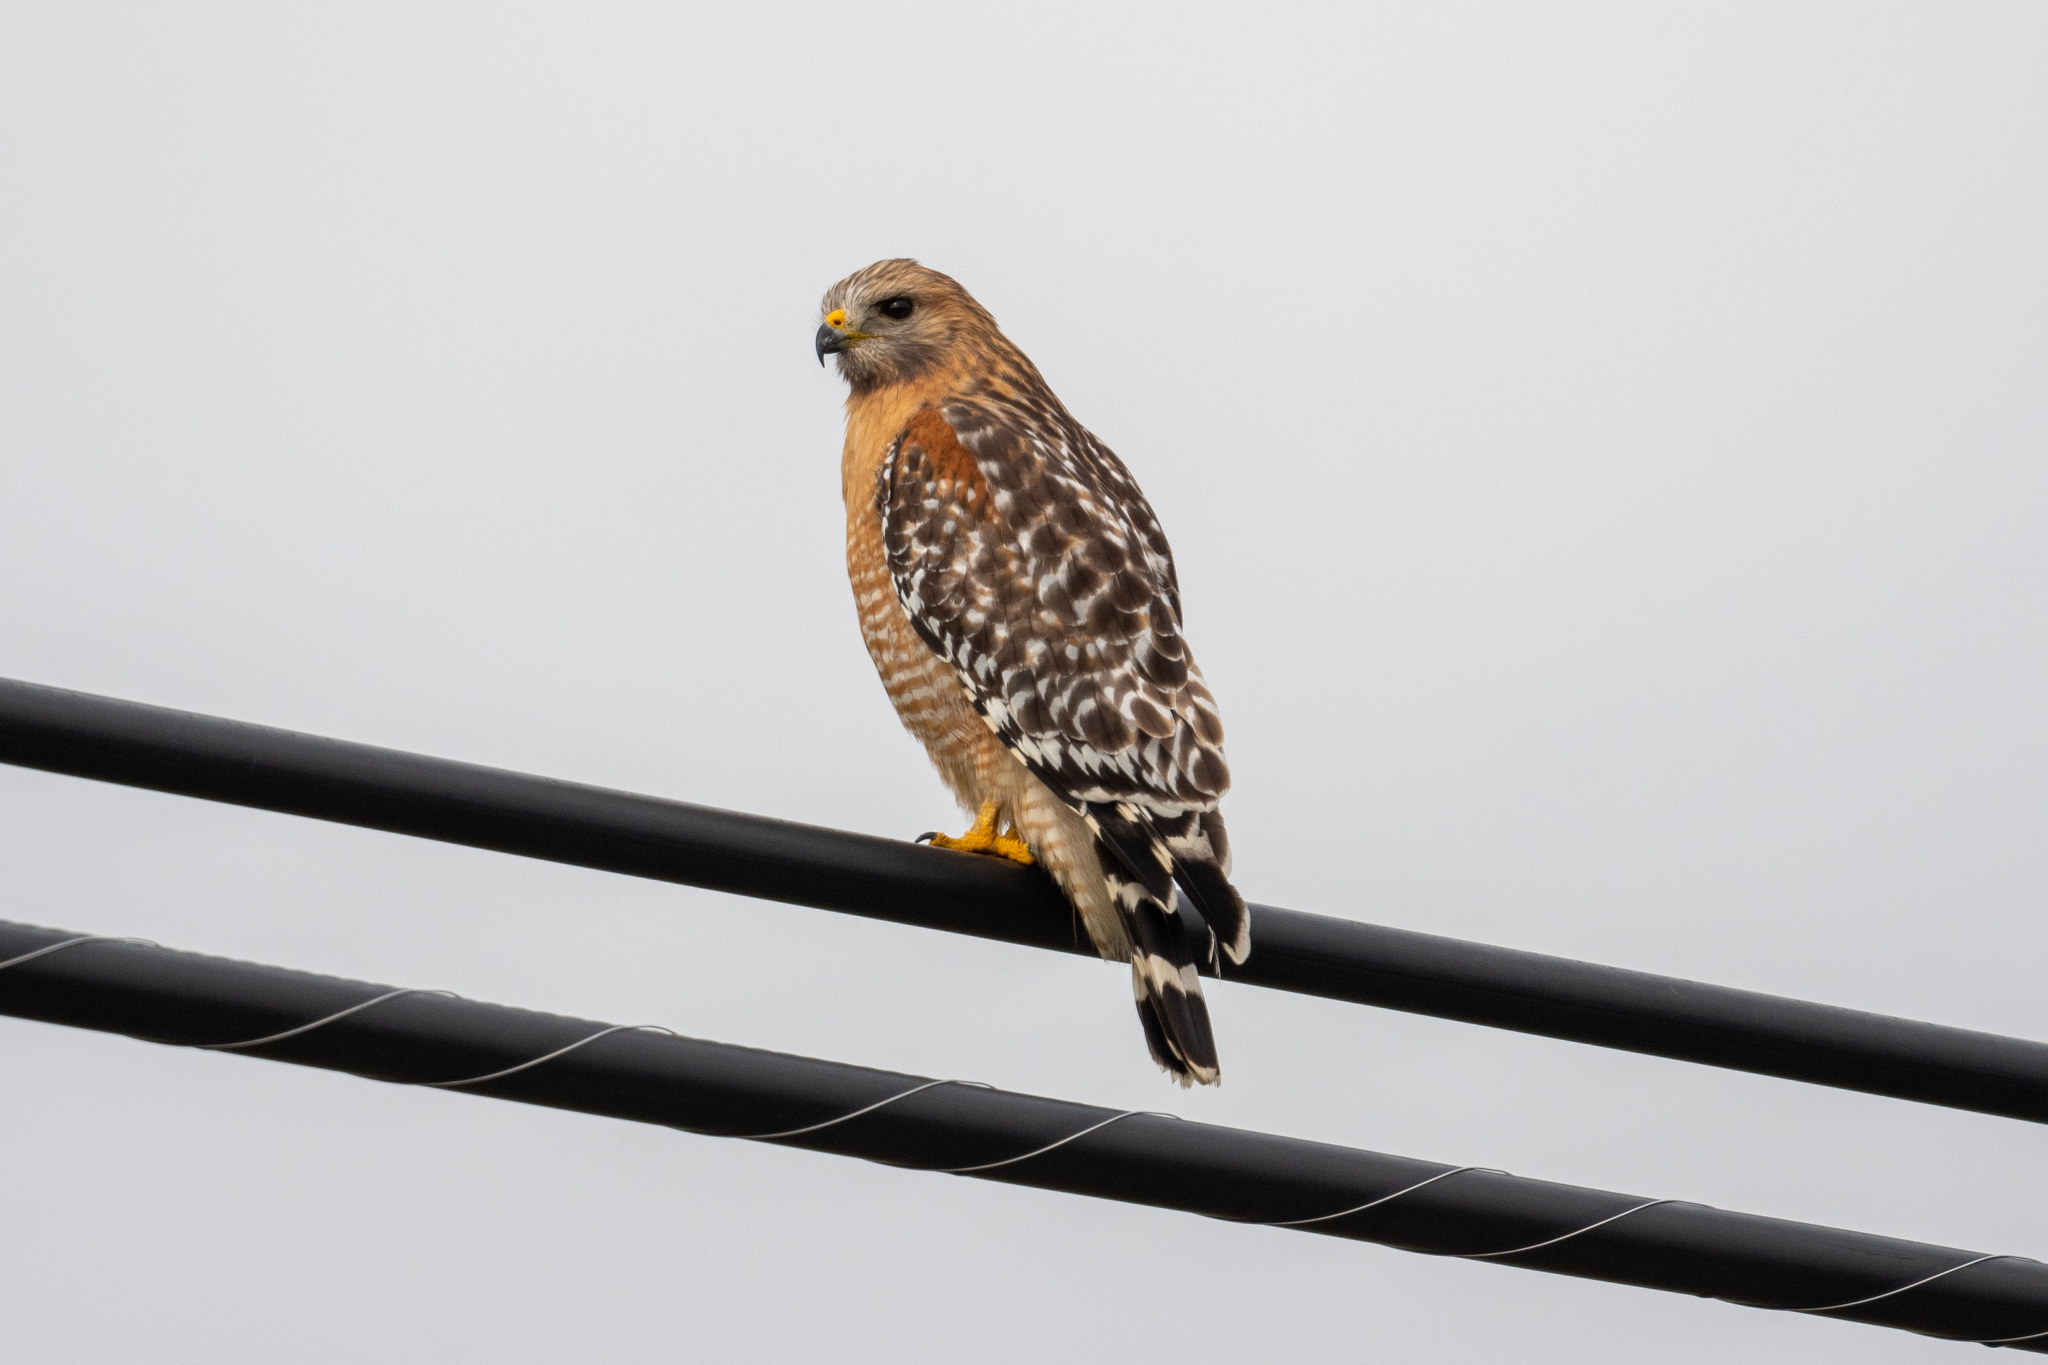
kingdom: Animalia
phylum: Chordata
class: Aves
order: Accipitriformes
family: Accipitridae
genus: Buteo
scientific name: Buteo lineatus
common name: Red-shouldered hawk
